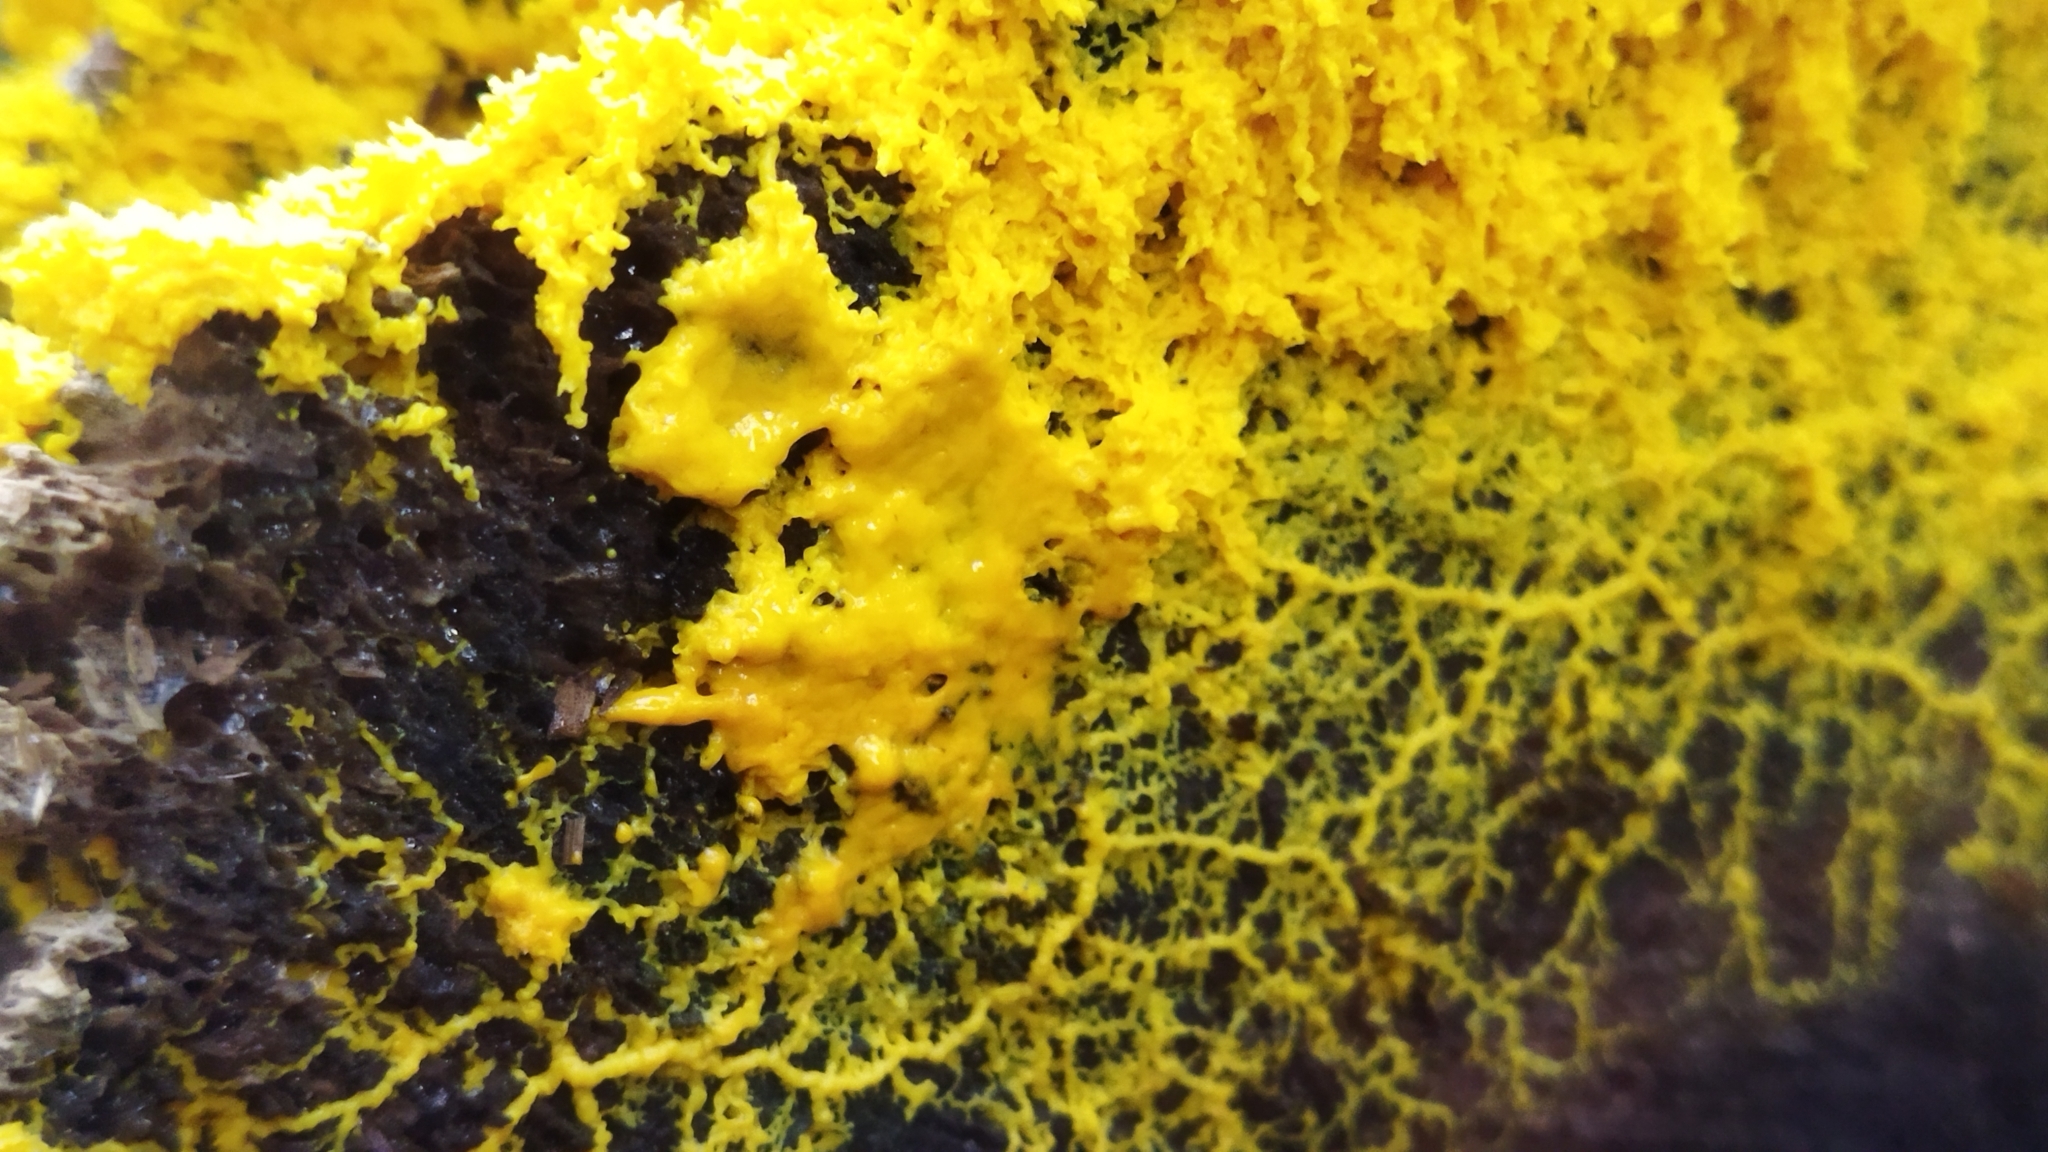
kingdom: Protozoa
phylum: Mycetozoa
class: Myxomycetes
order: Physarales
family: Physaraceae
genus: Fuligo
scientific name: Fuligo septica
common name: Dog vomit slime mold
